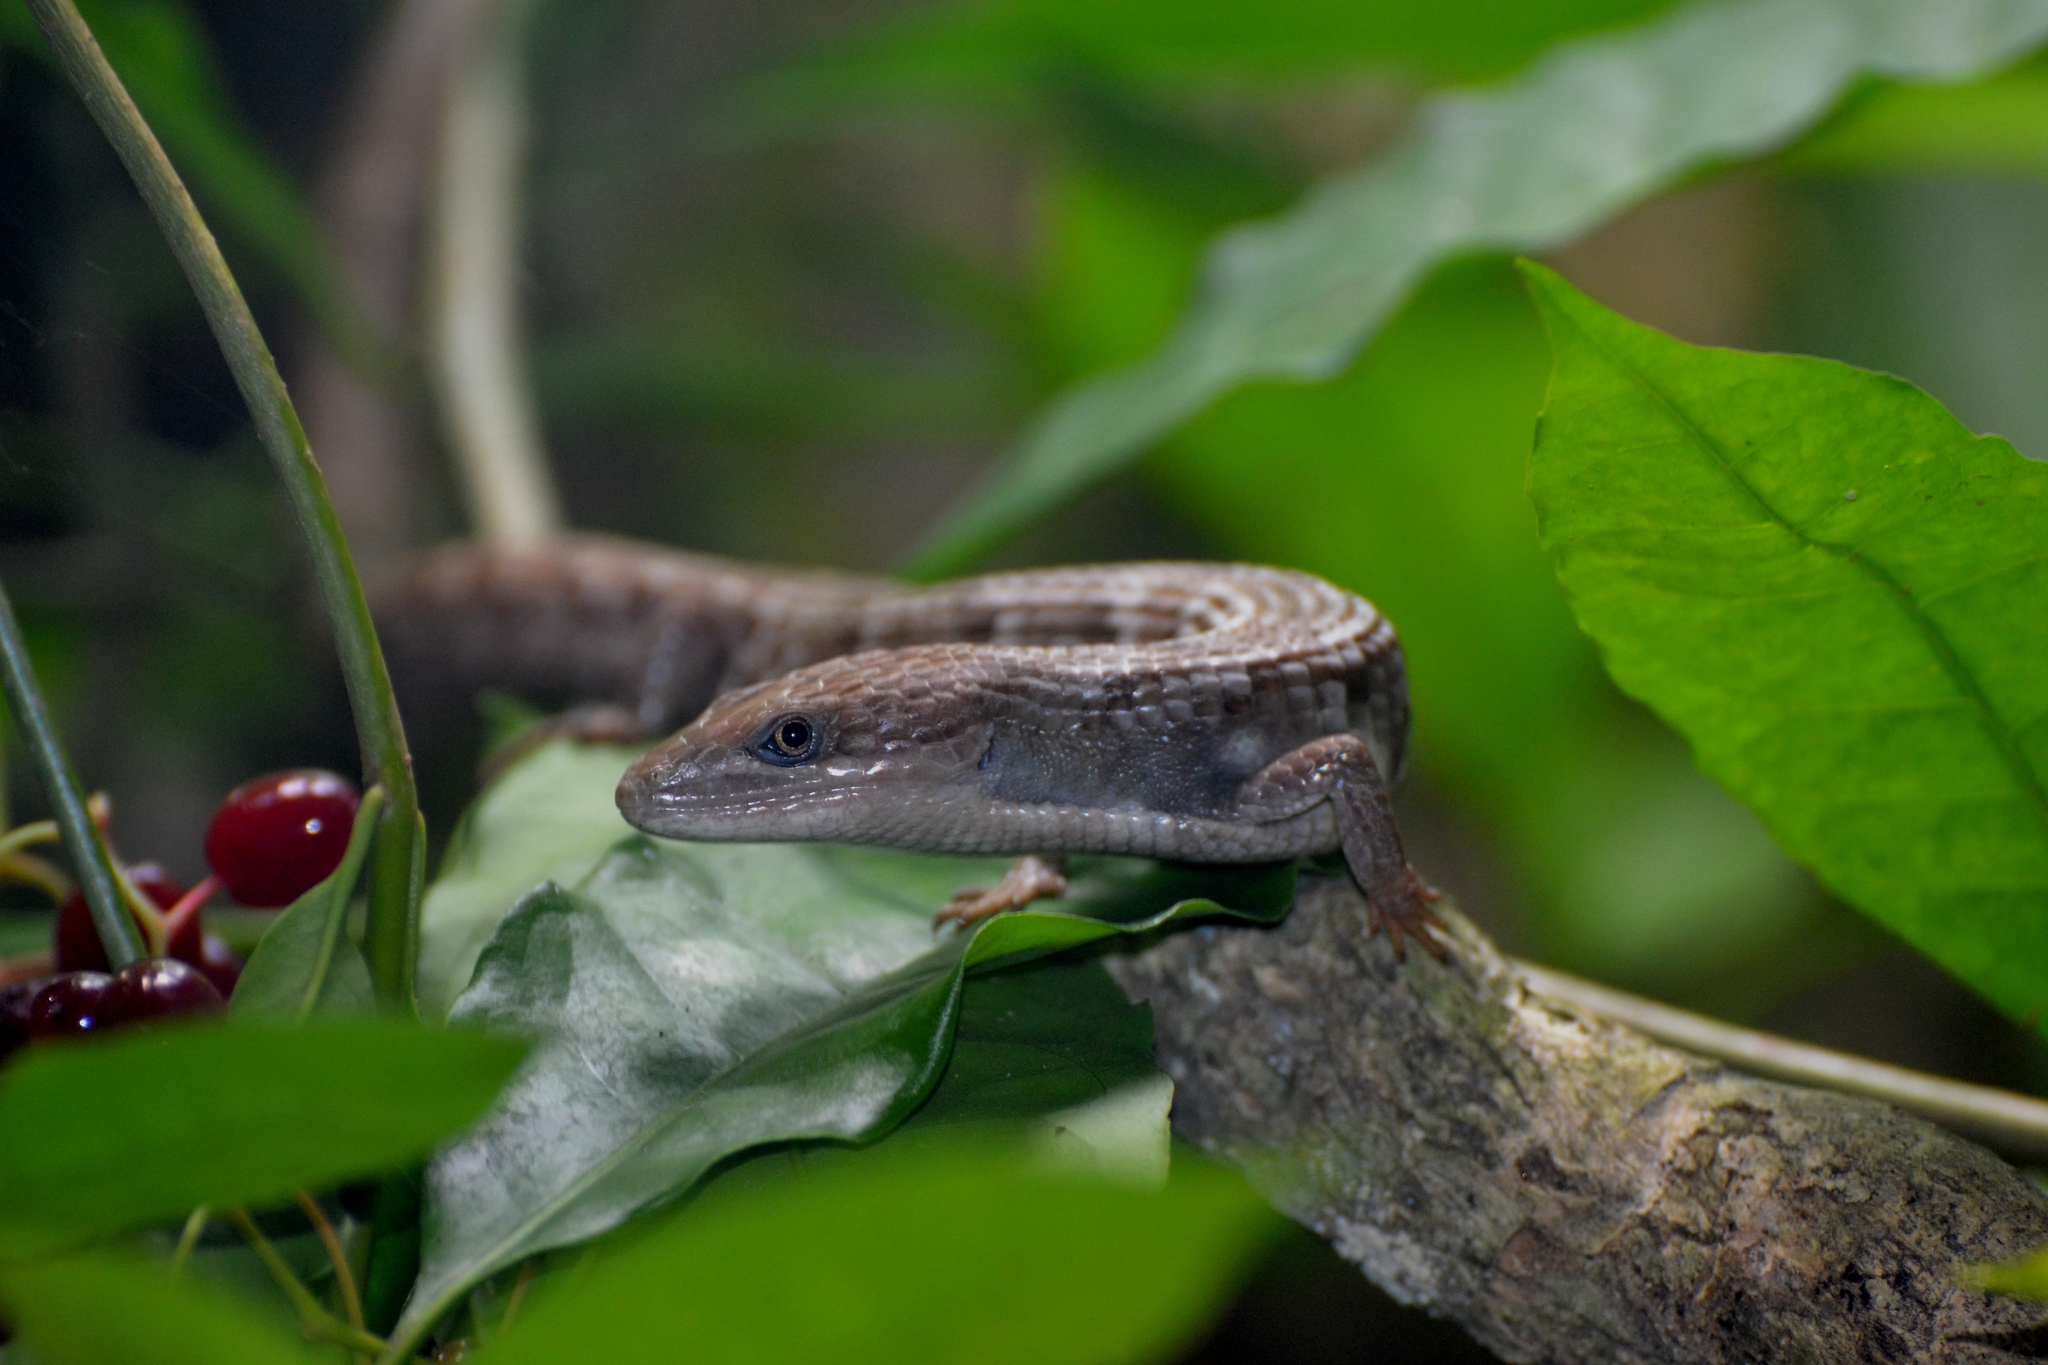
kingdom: Animalia
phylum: Chordata
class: Squamata
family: Anguidae
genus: Gerrhonotus
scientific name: Gerrhonotus liocephalus
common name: Texas alligator lizard
